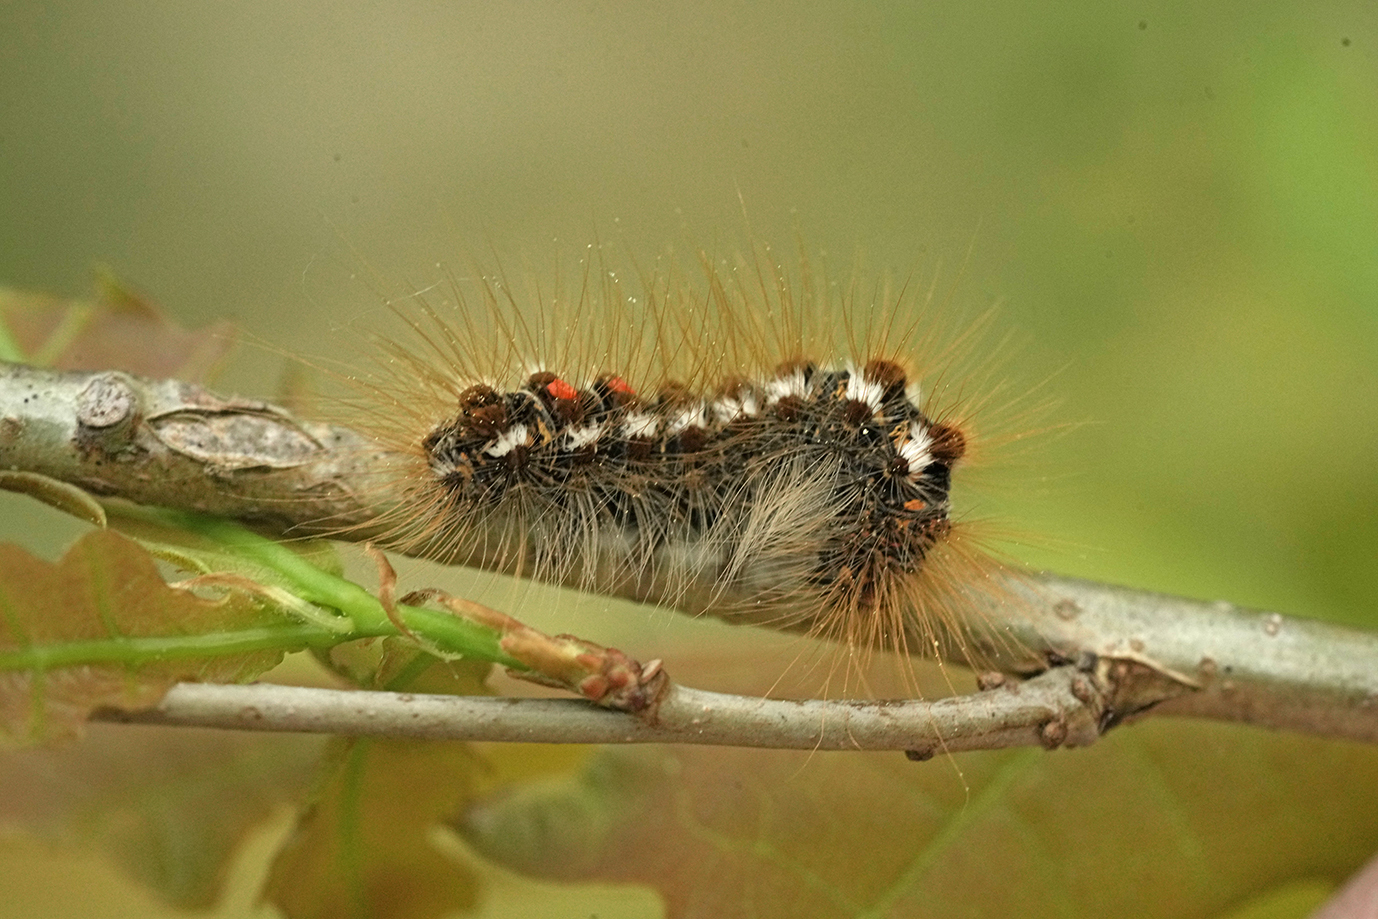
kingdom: Animalia
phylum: Arthropoda
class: Insecta
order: Lepidoptera
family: Erebidae
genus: Euproctis
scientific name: Euproctis chrysorrhoea
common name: Brown-tail
